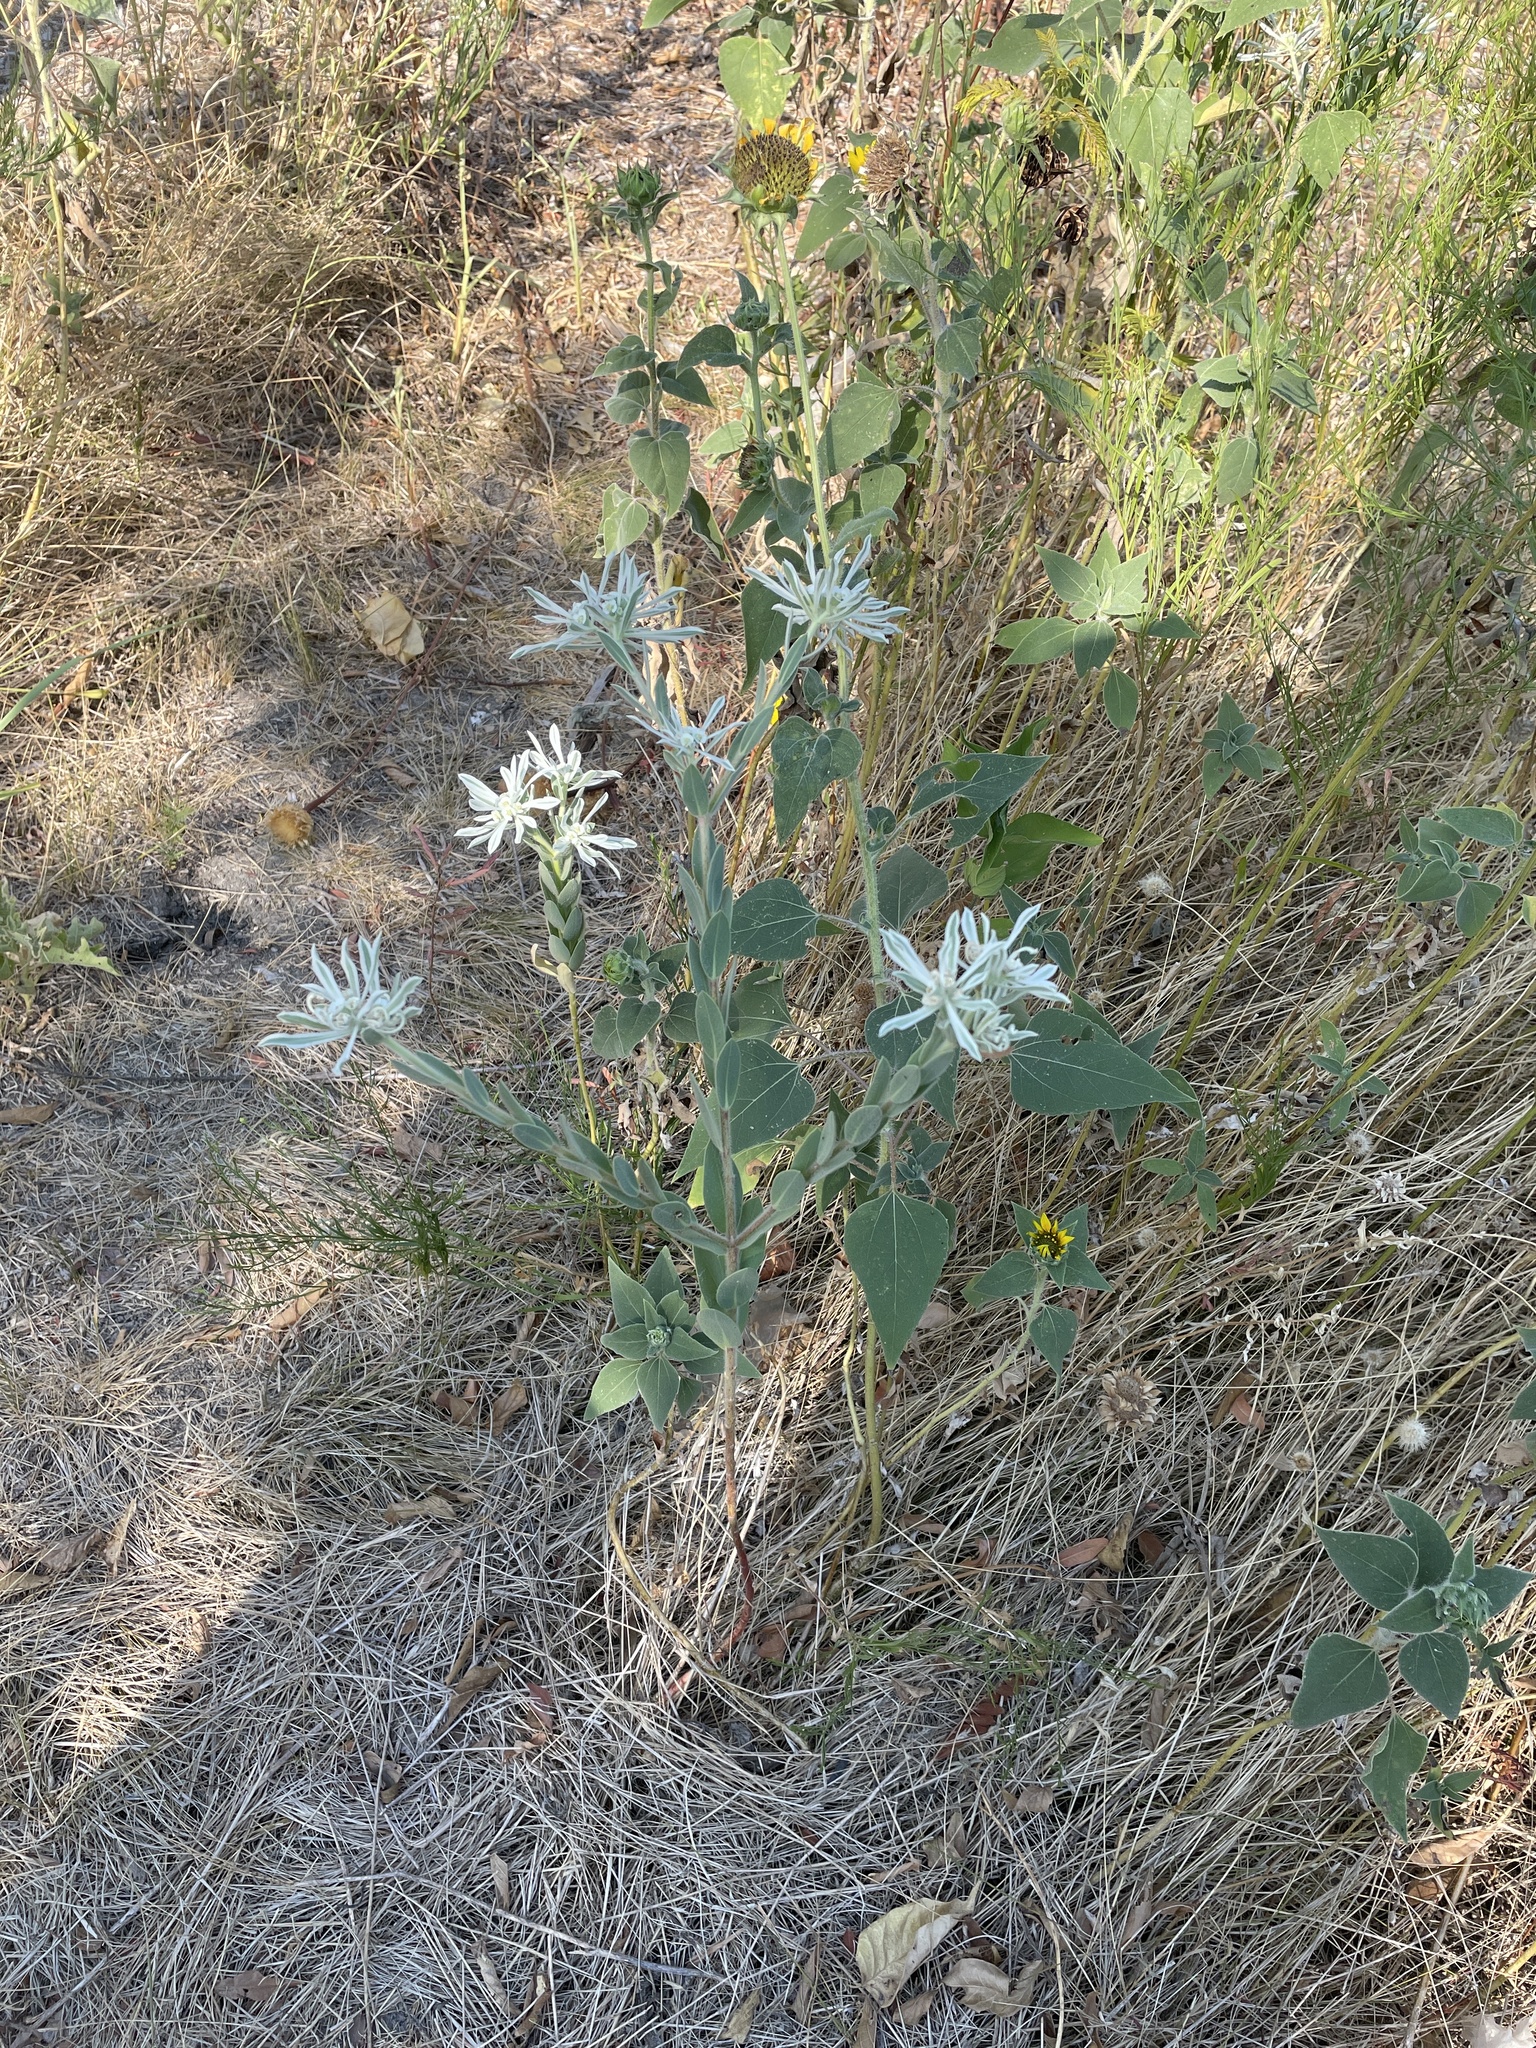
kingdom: Plantae
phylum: Tracheophyta
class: Magnoliopsida
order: Malpighiales
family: Euphorbiaceae
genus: Euphorbia
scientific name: Euphorbia bicolor
